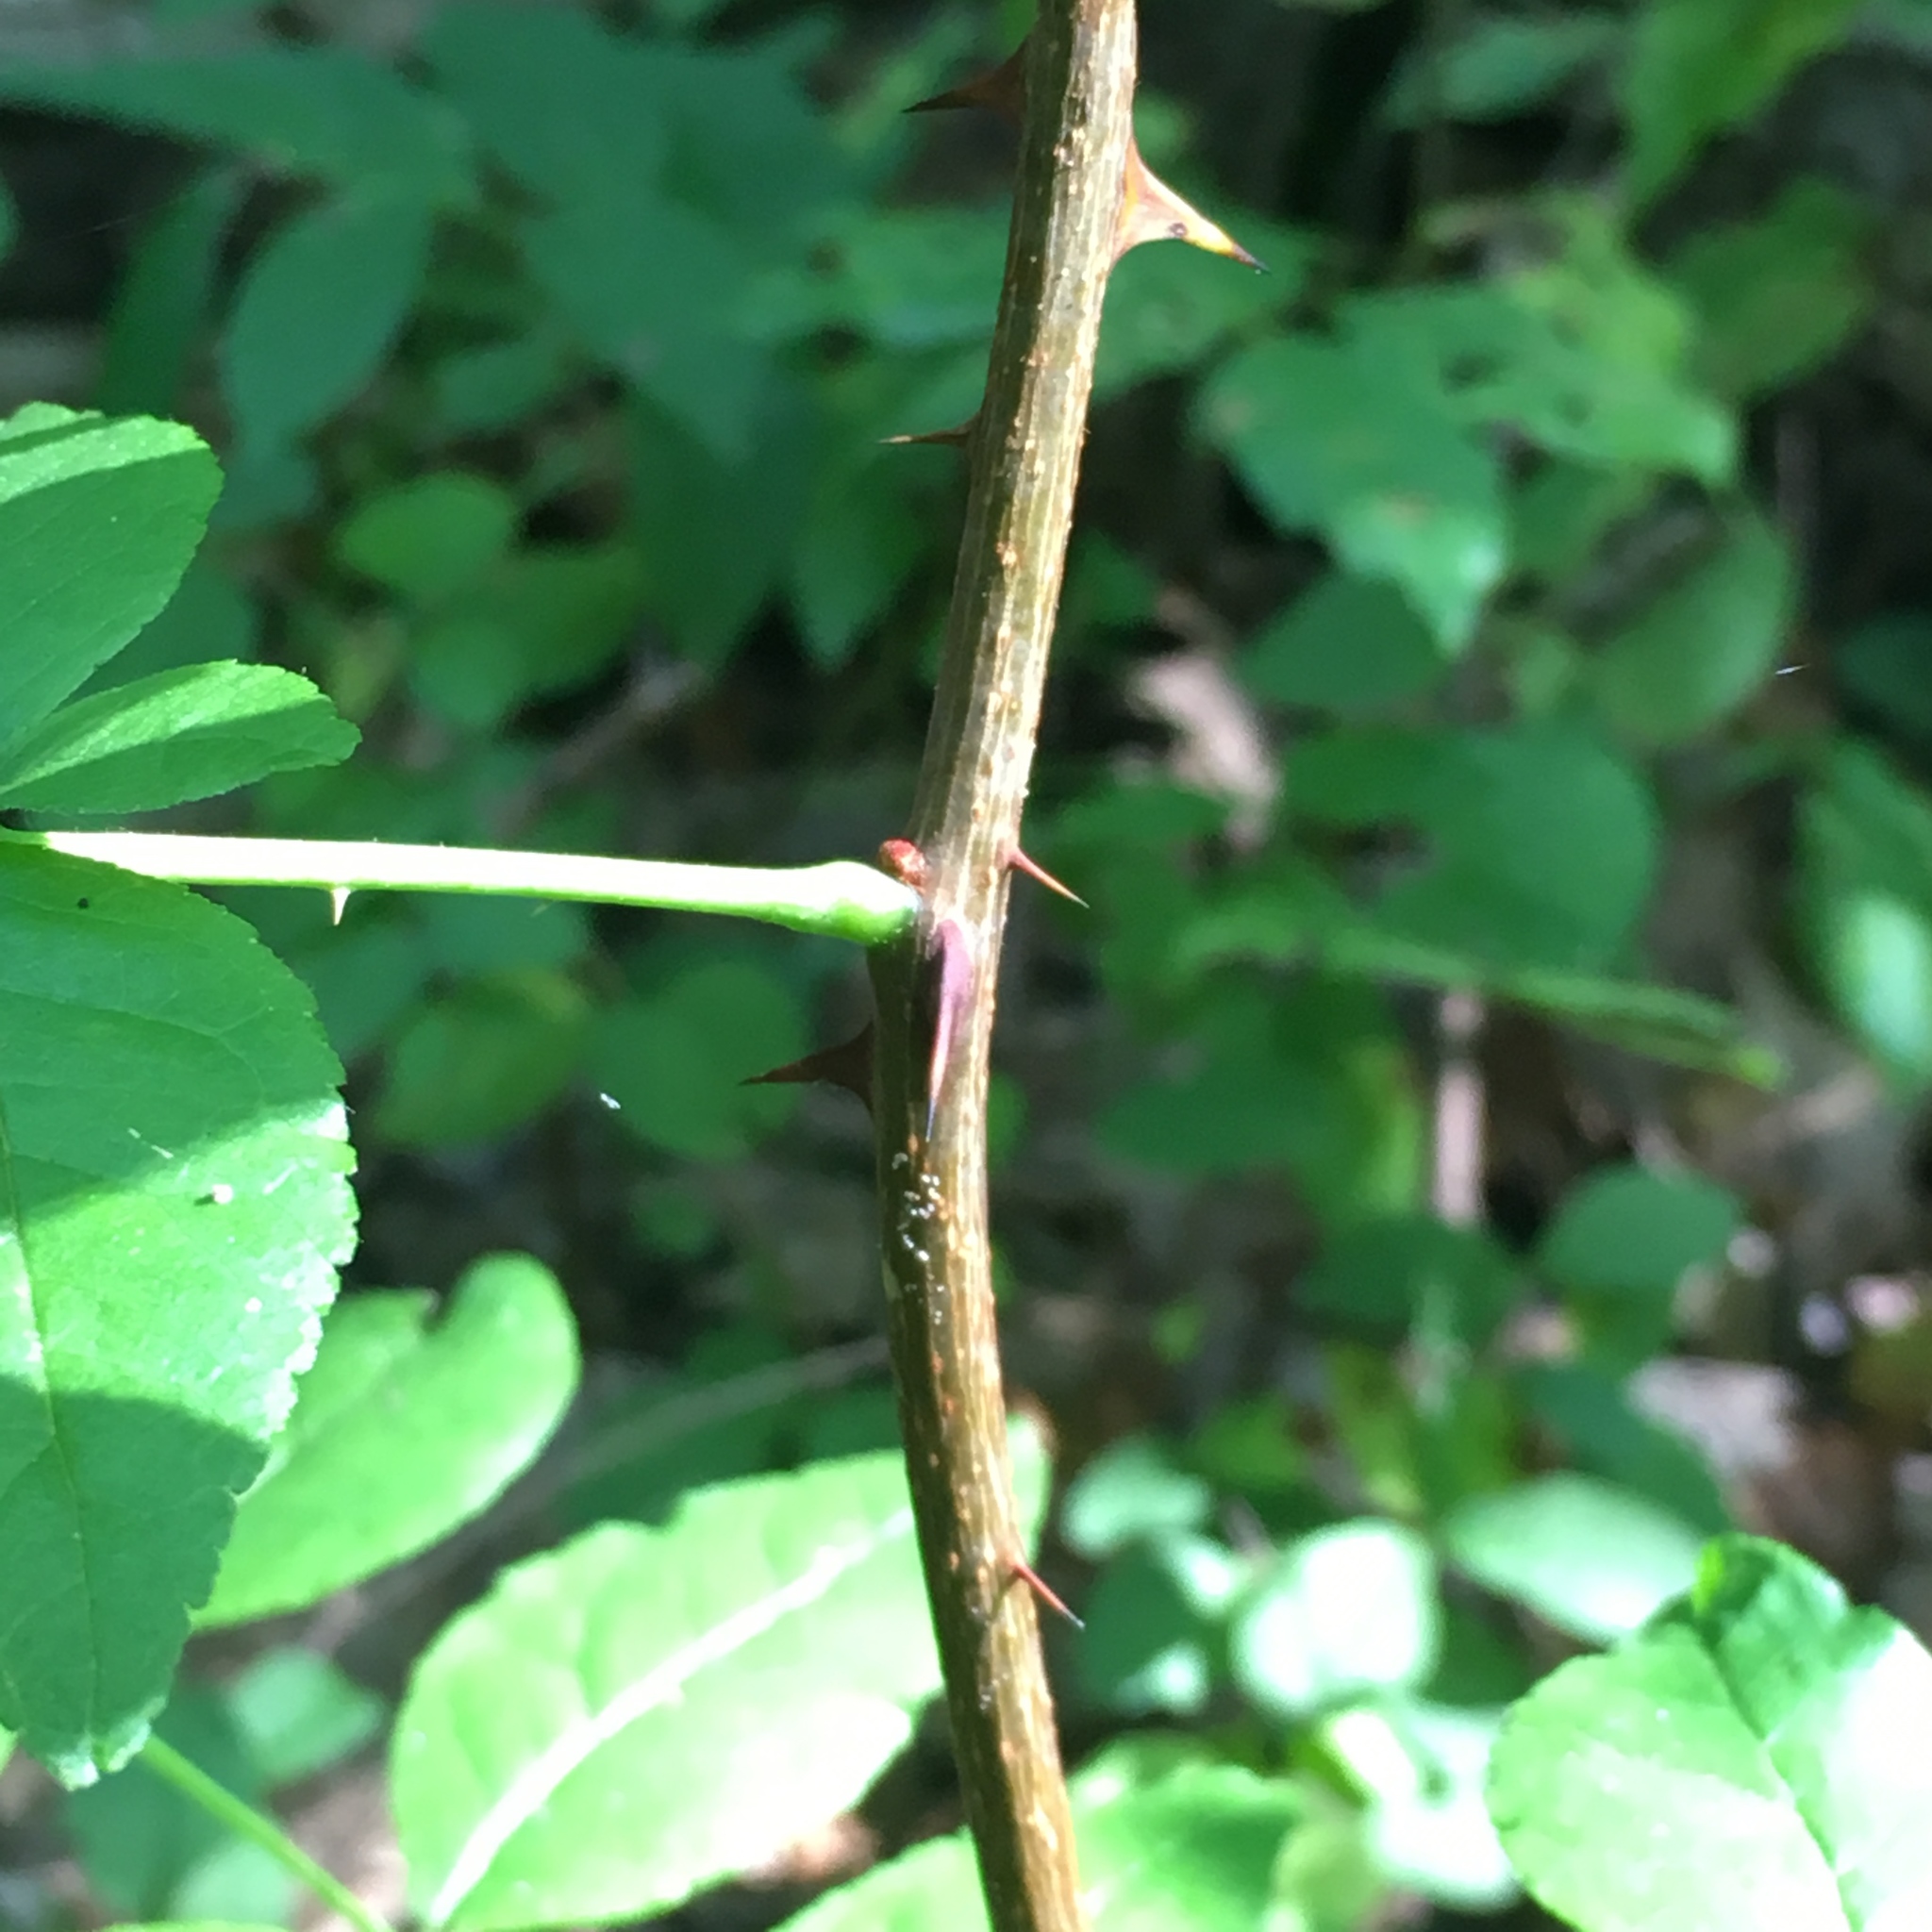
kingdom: Plantae
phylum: Tracheophyta
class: Magnoliopsida
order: Sapindales
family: Rutaceae
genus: Zanthoxylum
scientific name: Zanthoxylum americanum
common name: Northern prickly-ash
